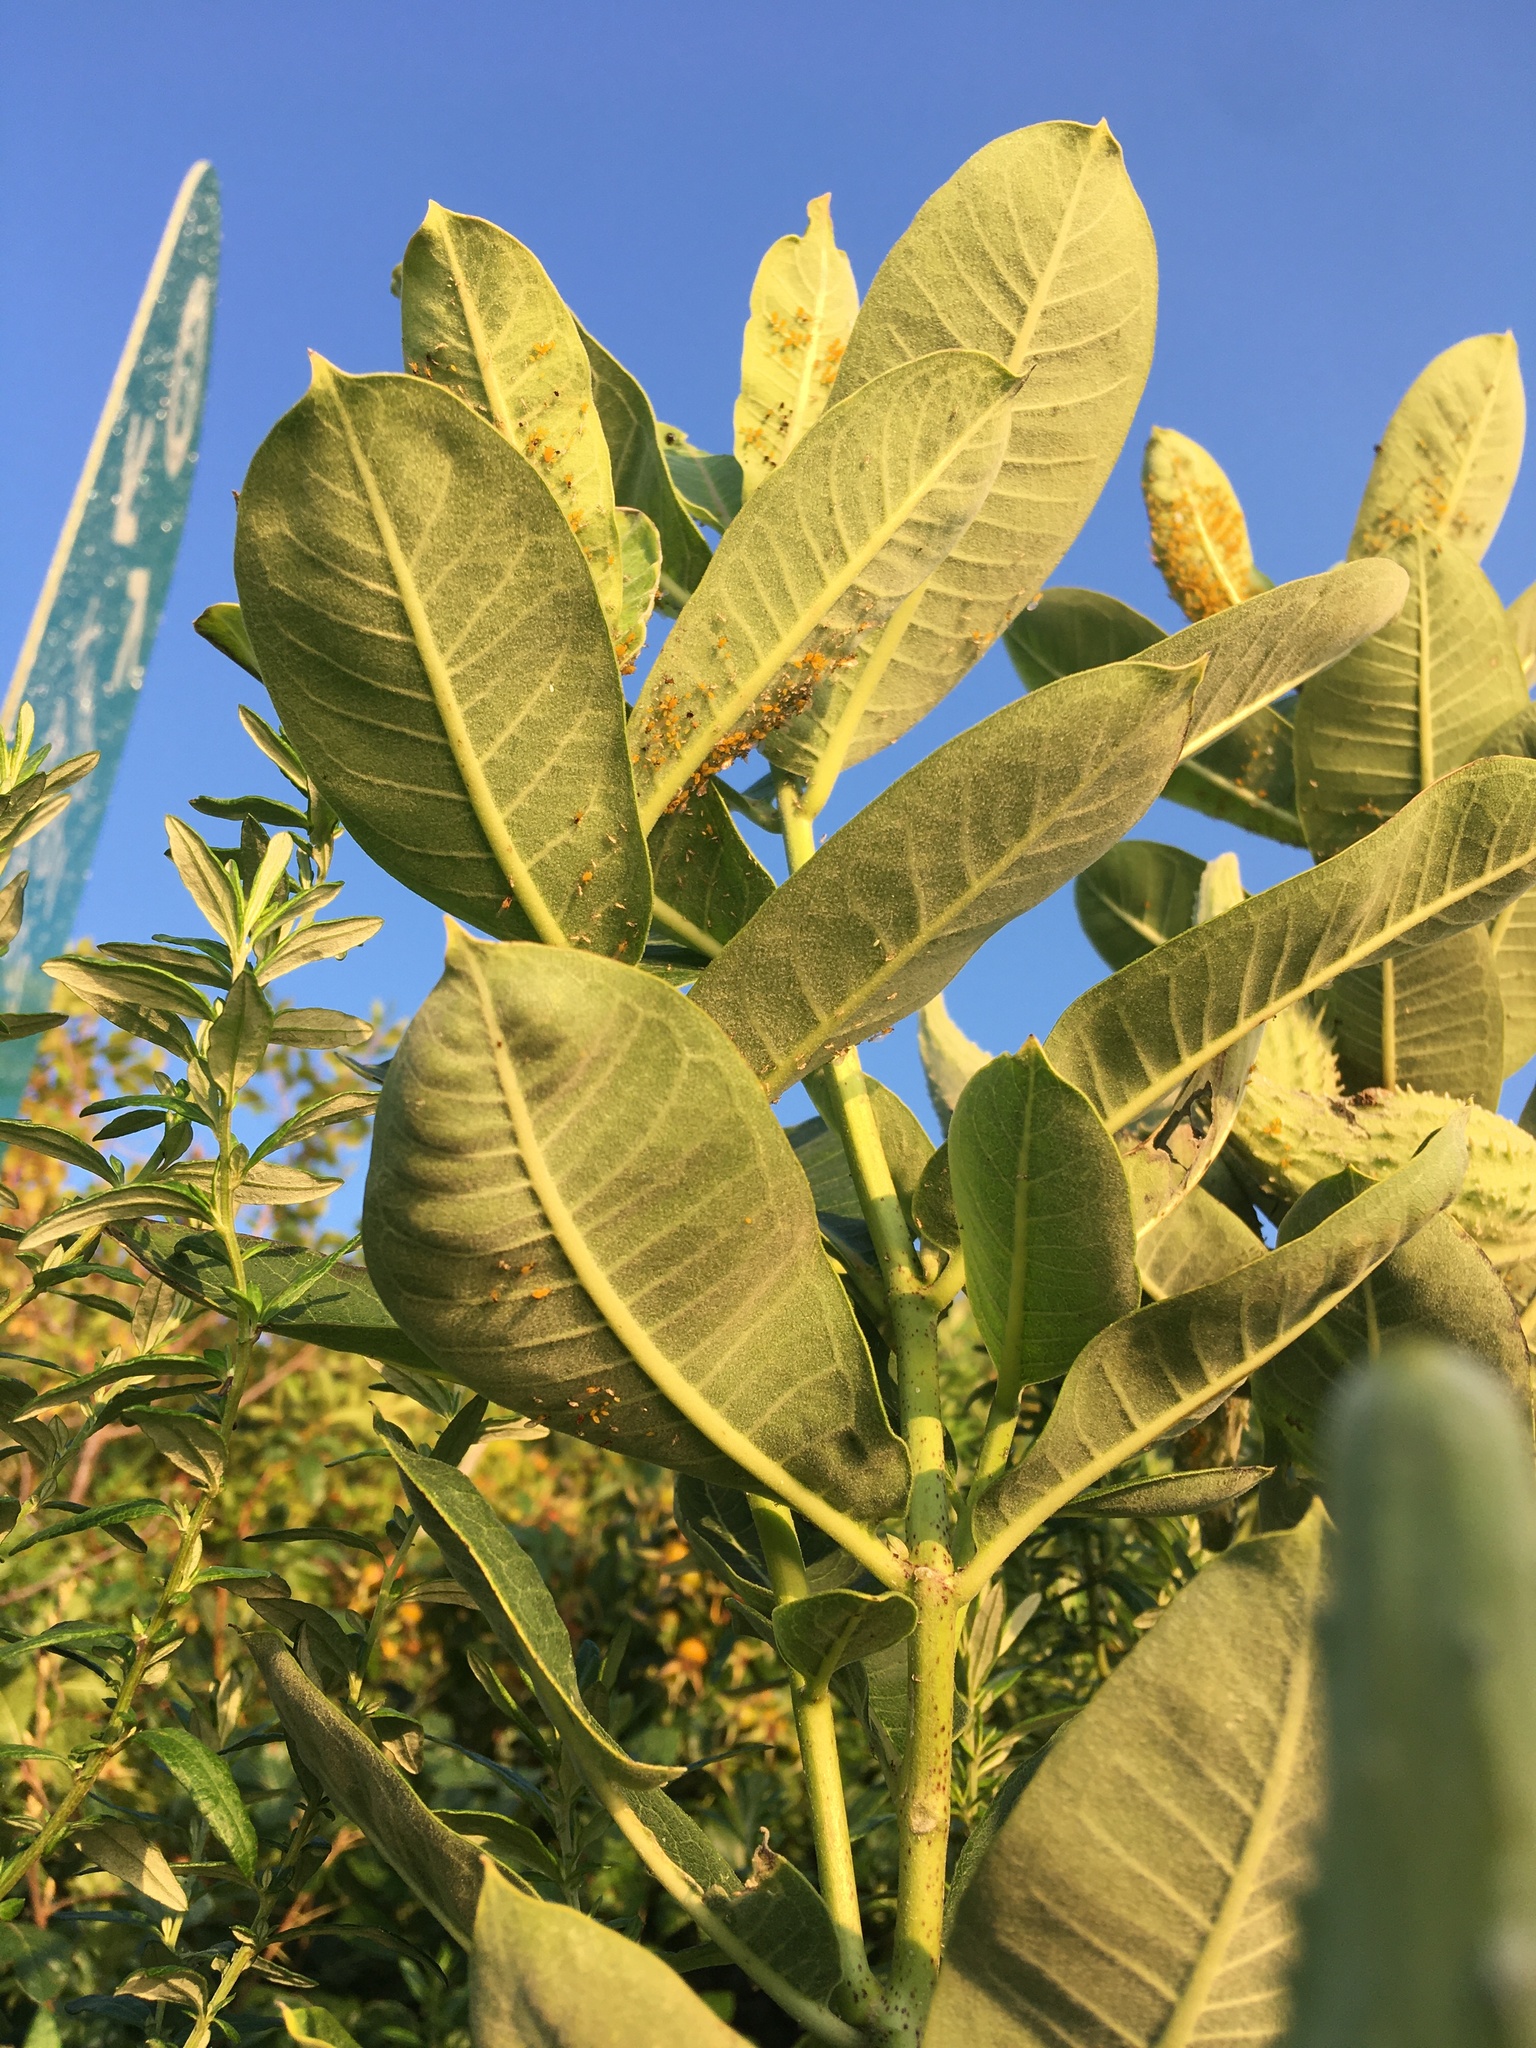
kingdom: Plantae
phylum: Tracheophyta
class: Magnoliopsida
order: Gentianales
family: Apocynaceae
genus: Asclepias
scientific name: Asclepias syriaca
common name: Common milkweed
